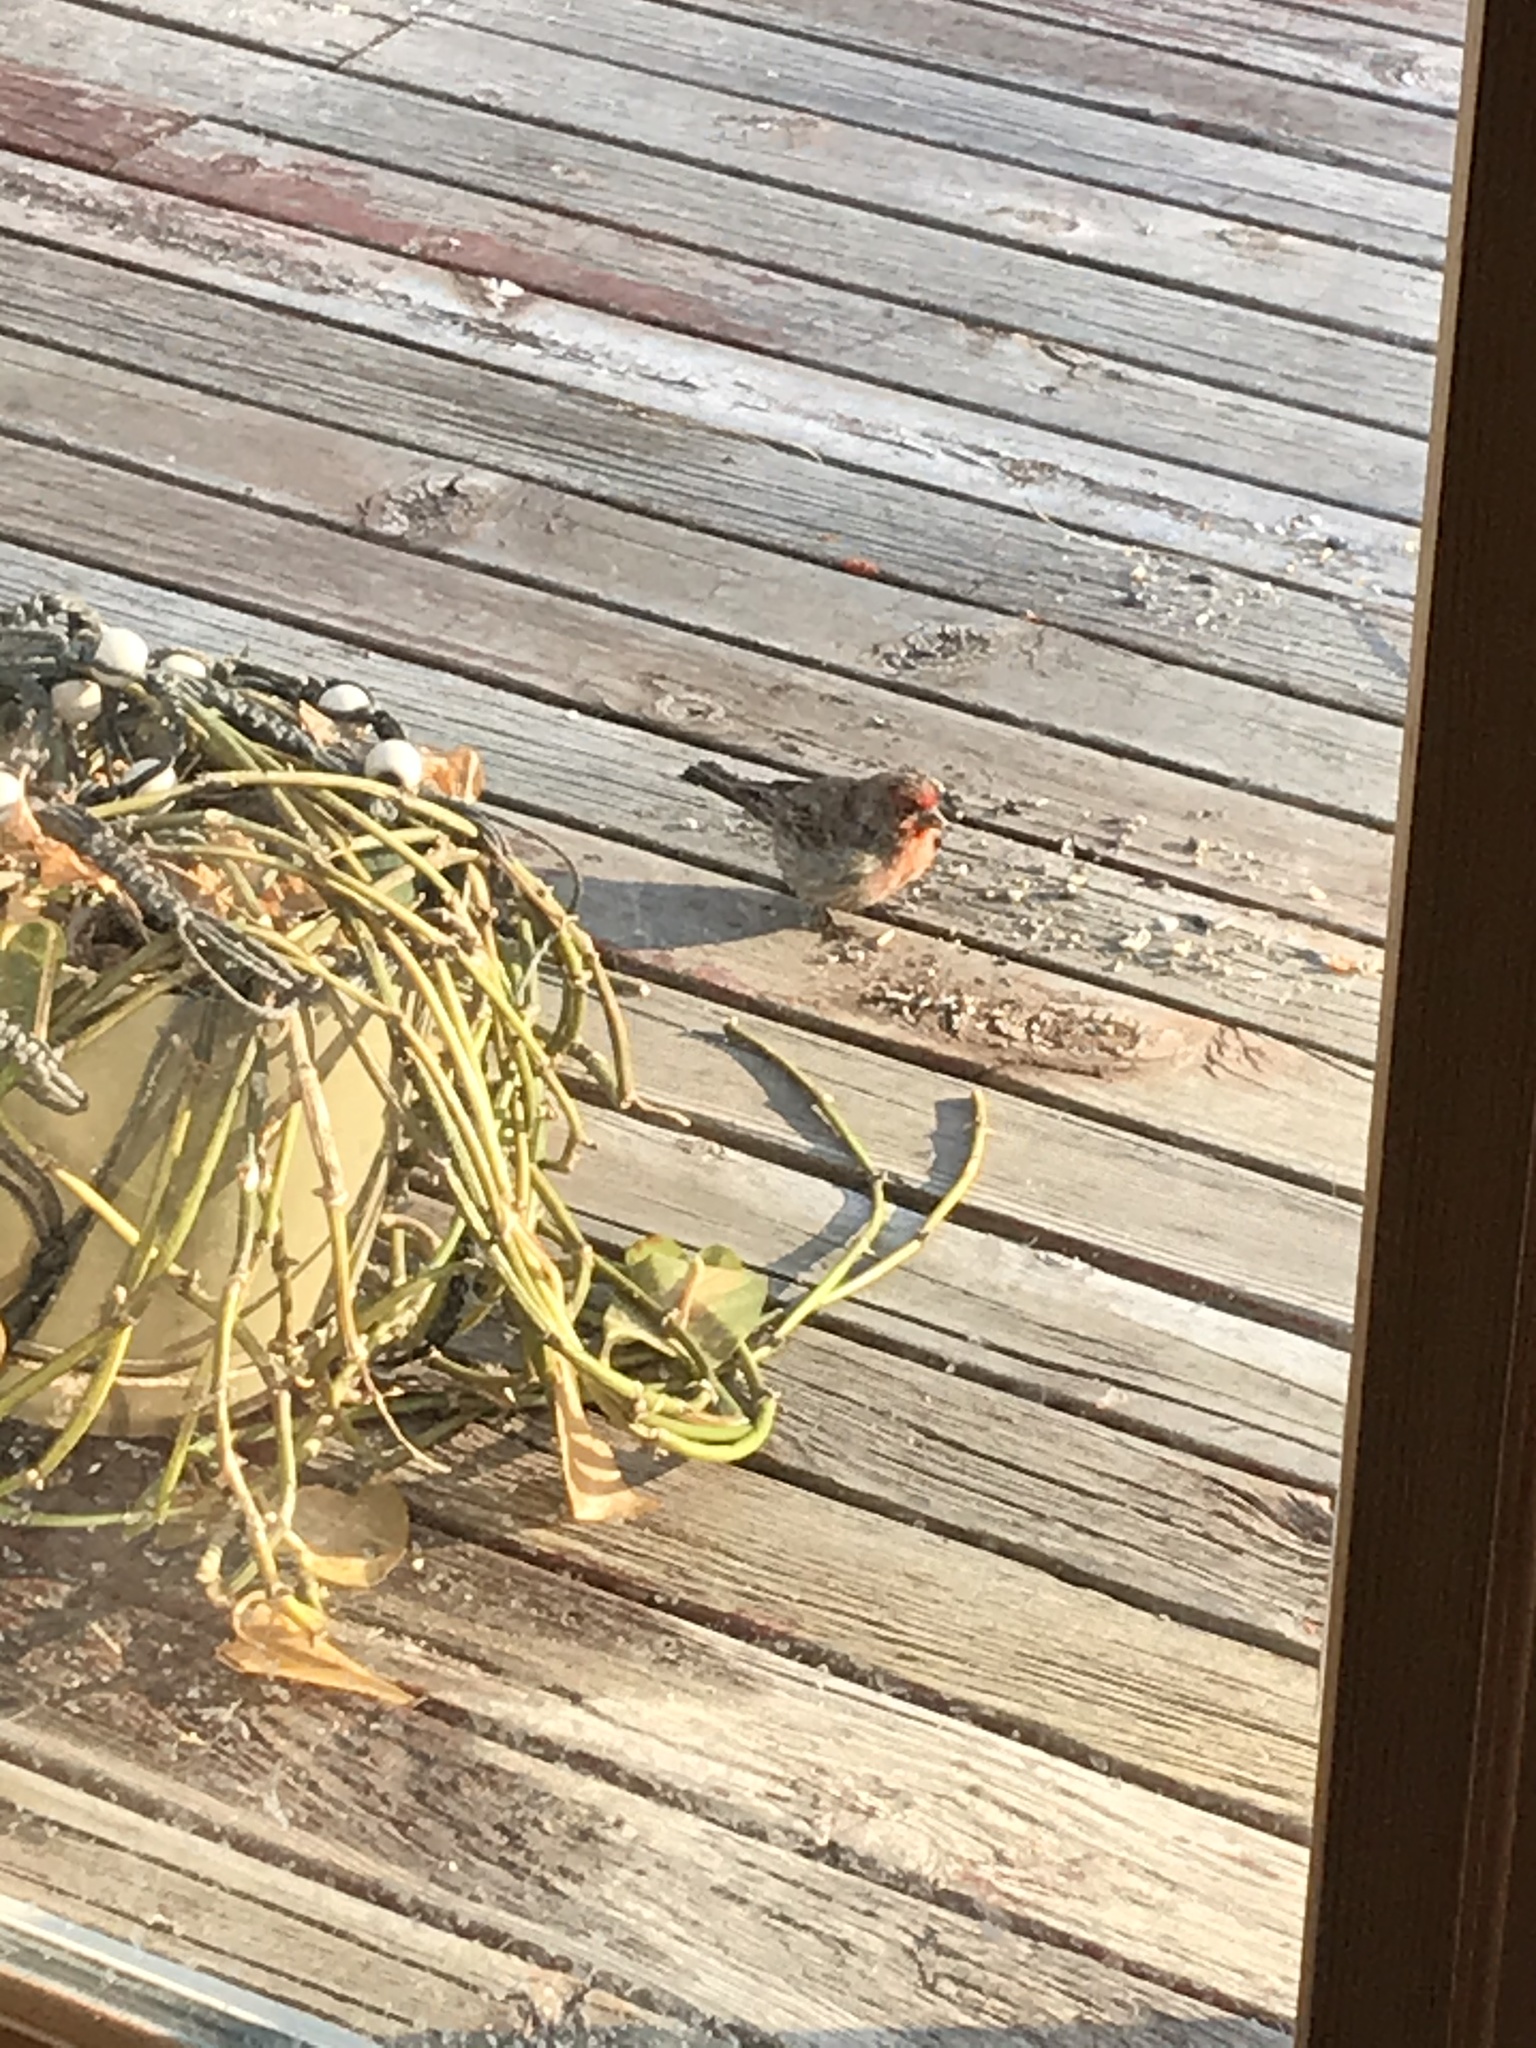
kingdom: Animalia
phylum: Chordata
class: Aves
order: Passeriformes
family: Fringillidae
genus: Haemorhous
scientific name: Haemorhous mexicanus
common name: House finch
